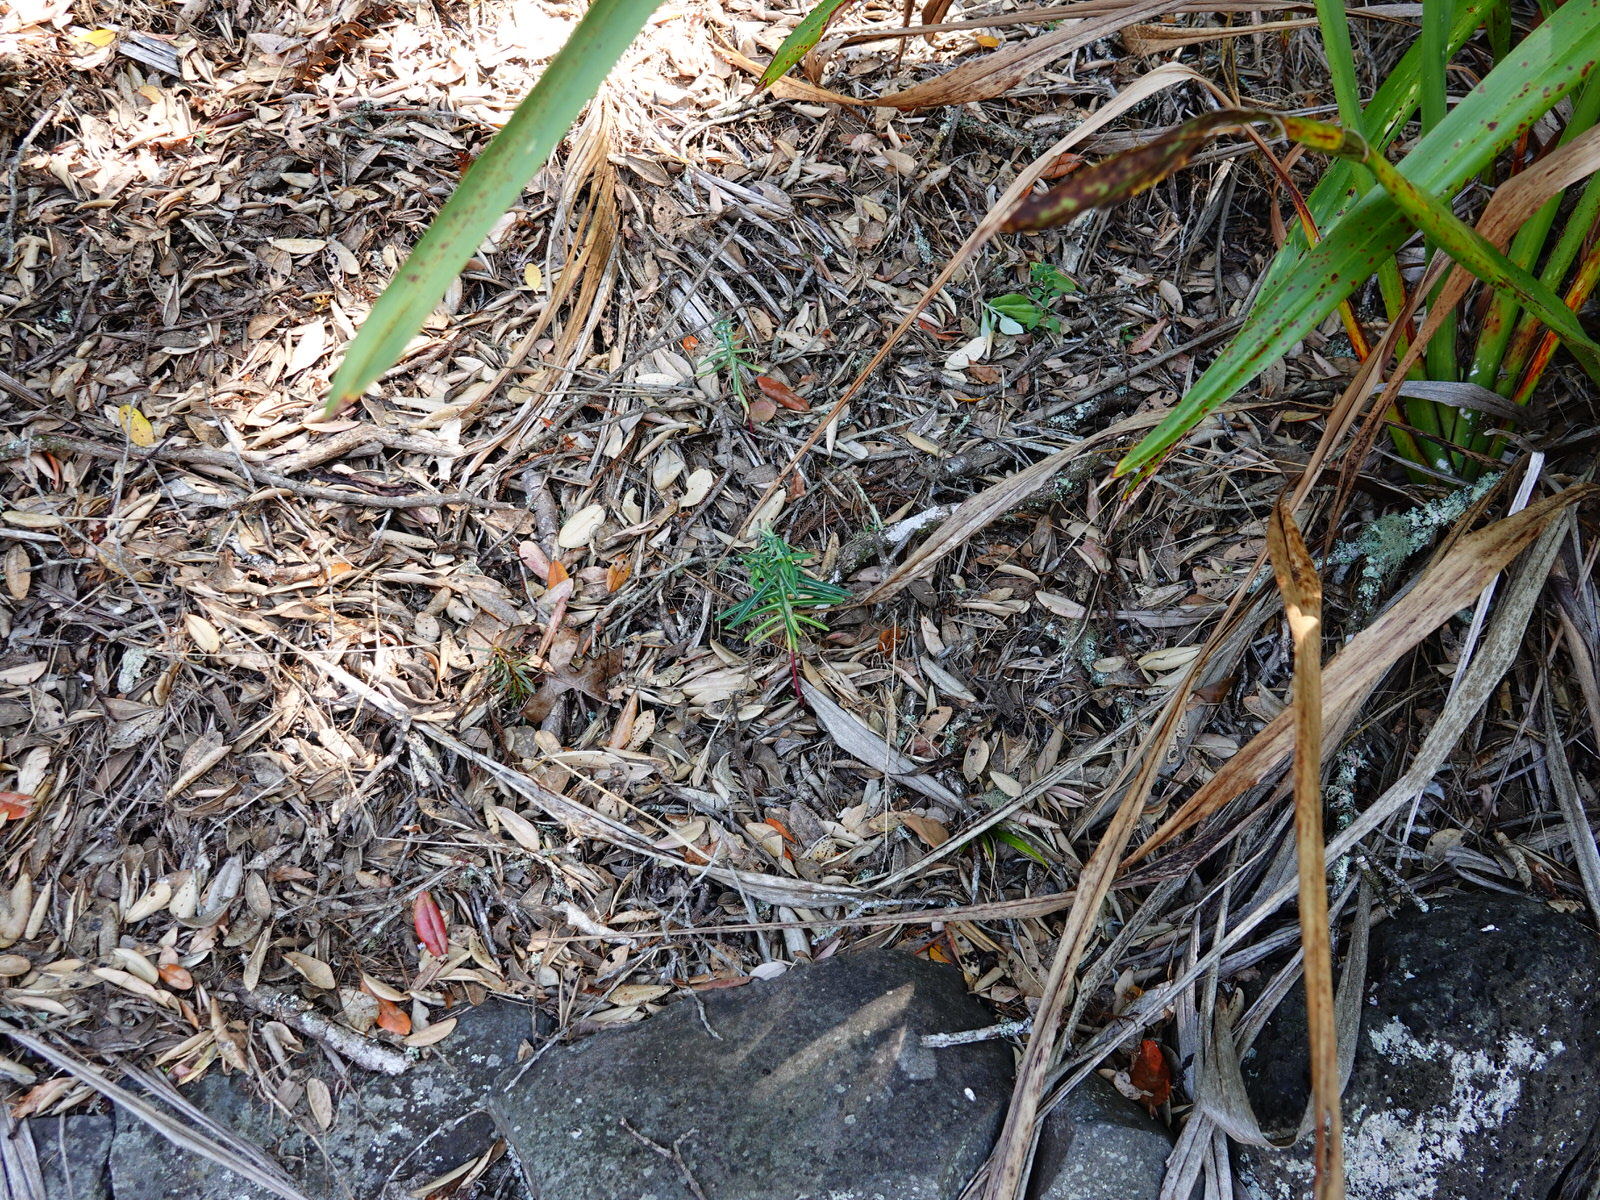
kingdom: Plantae
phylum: Tracheophyta
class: Magnoliopsida
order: Malpighiales
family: Euphorbiaceae
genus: Euphorbia
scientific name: Euphorbia lathyris
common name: Caper spurge
